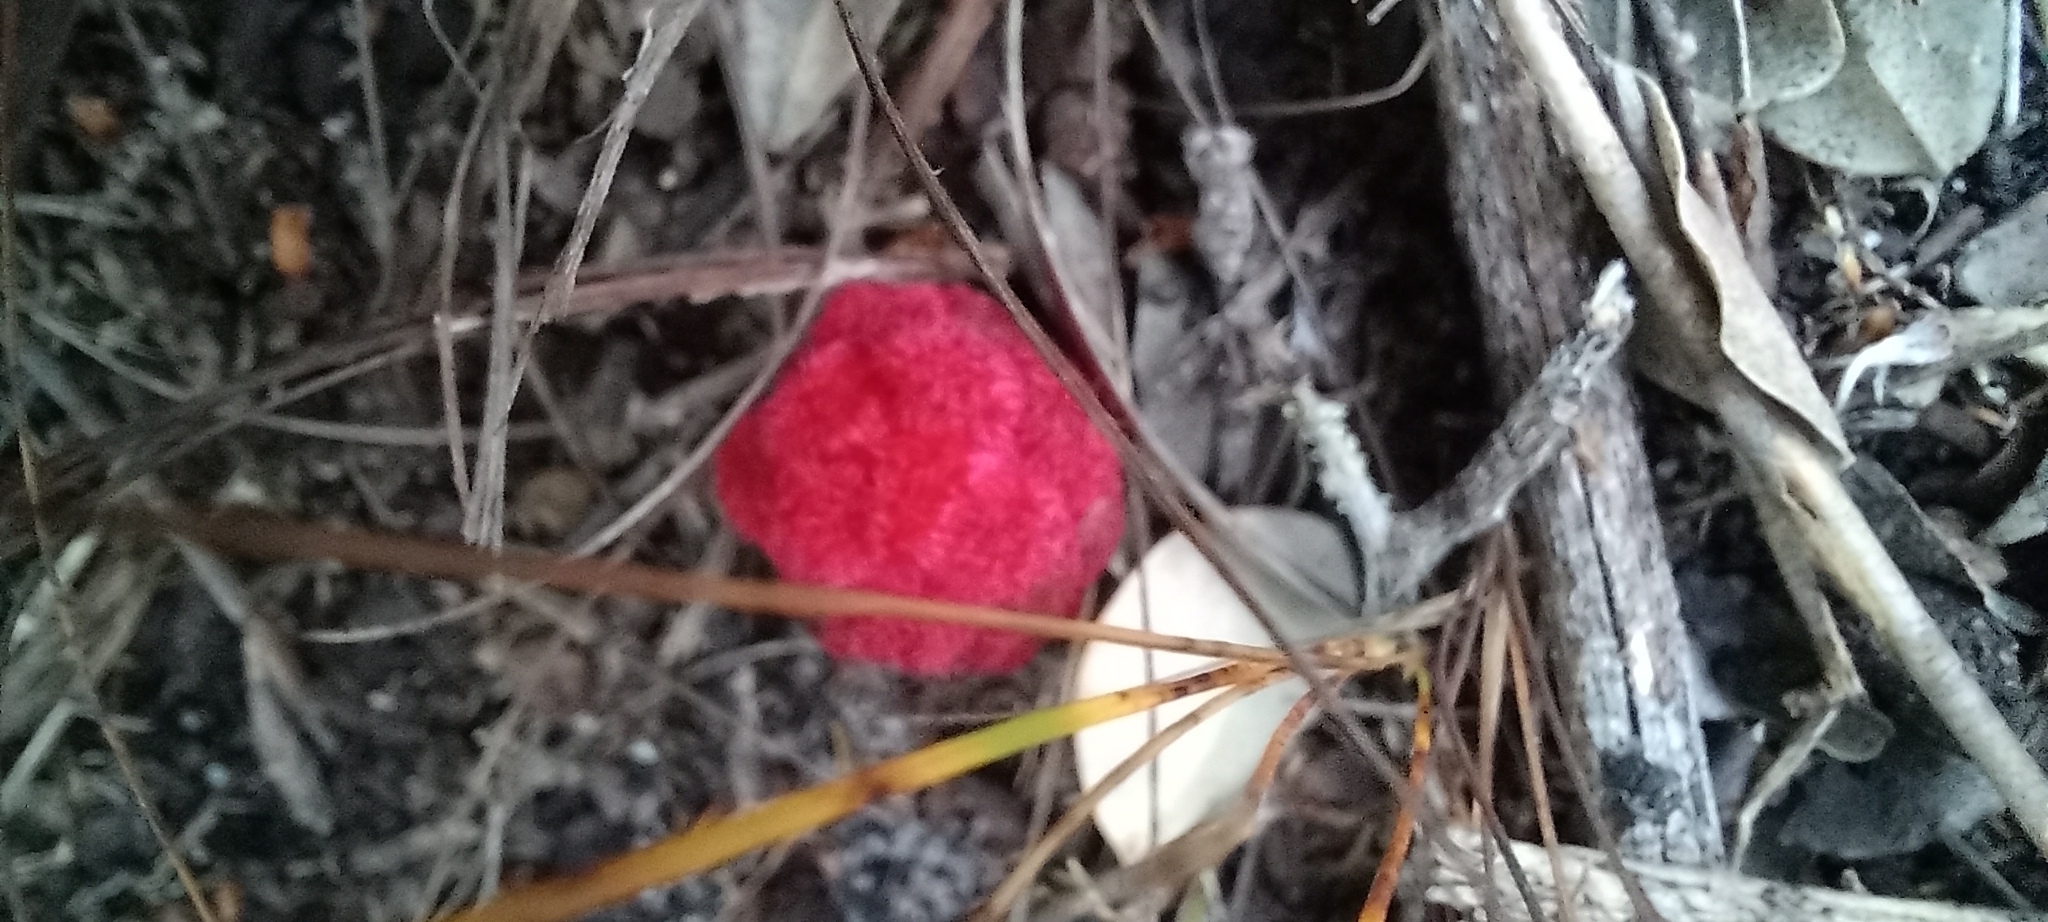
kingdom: Plantae
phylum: Tracheophyta
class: Magnoliopsida
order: Lamiales
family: Orobanchaceae
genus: Hyobanche
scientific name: Hyobanche sanguinea
